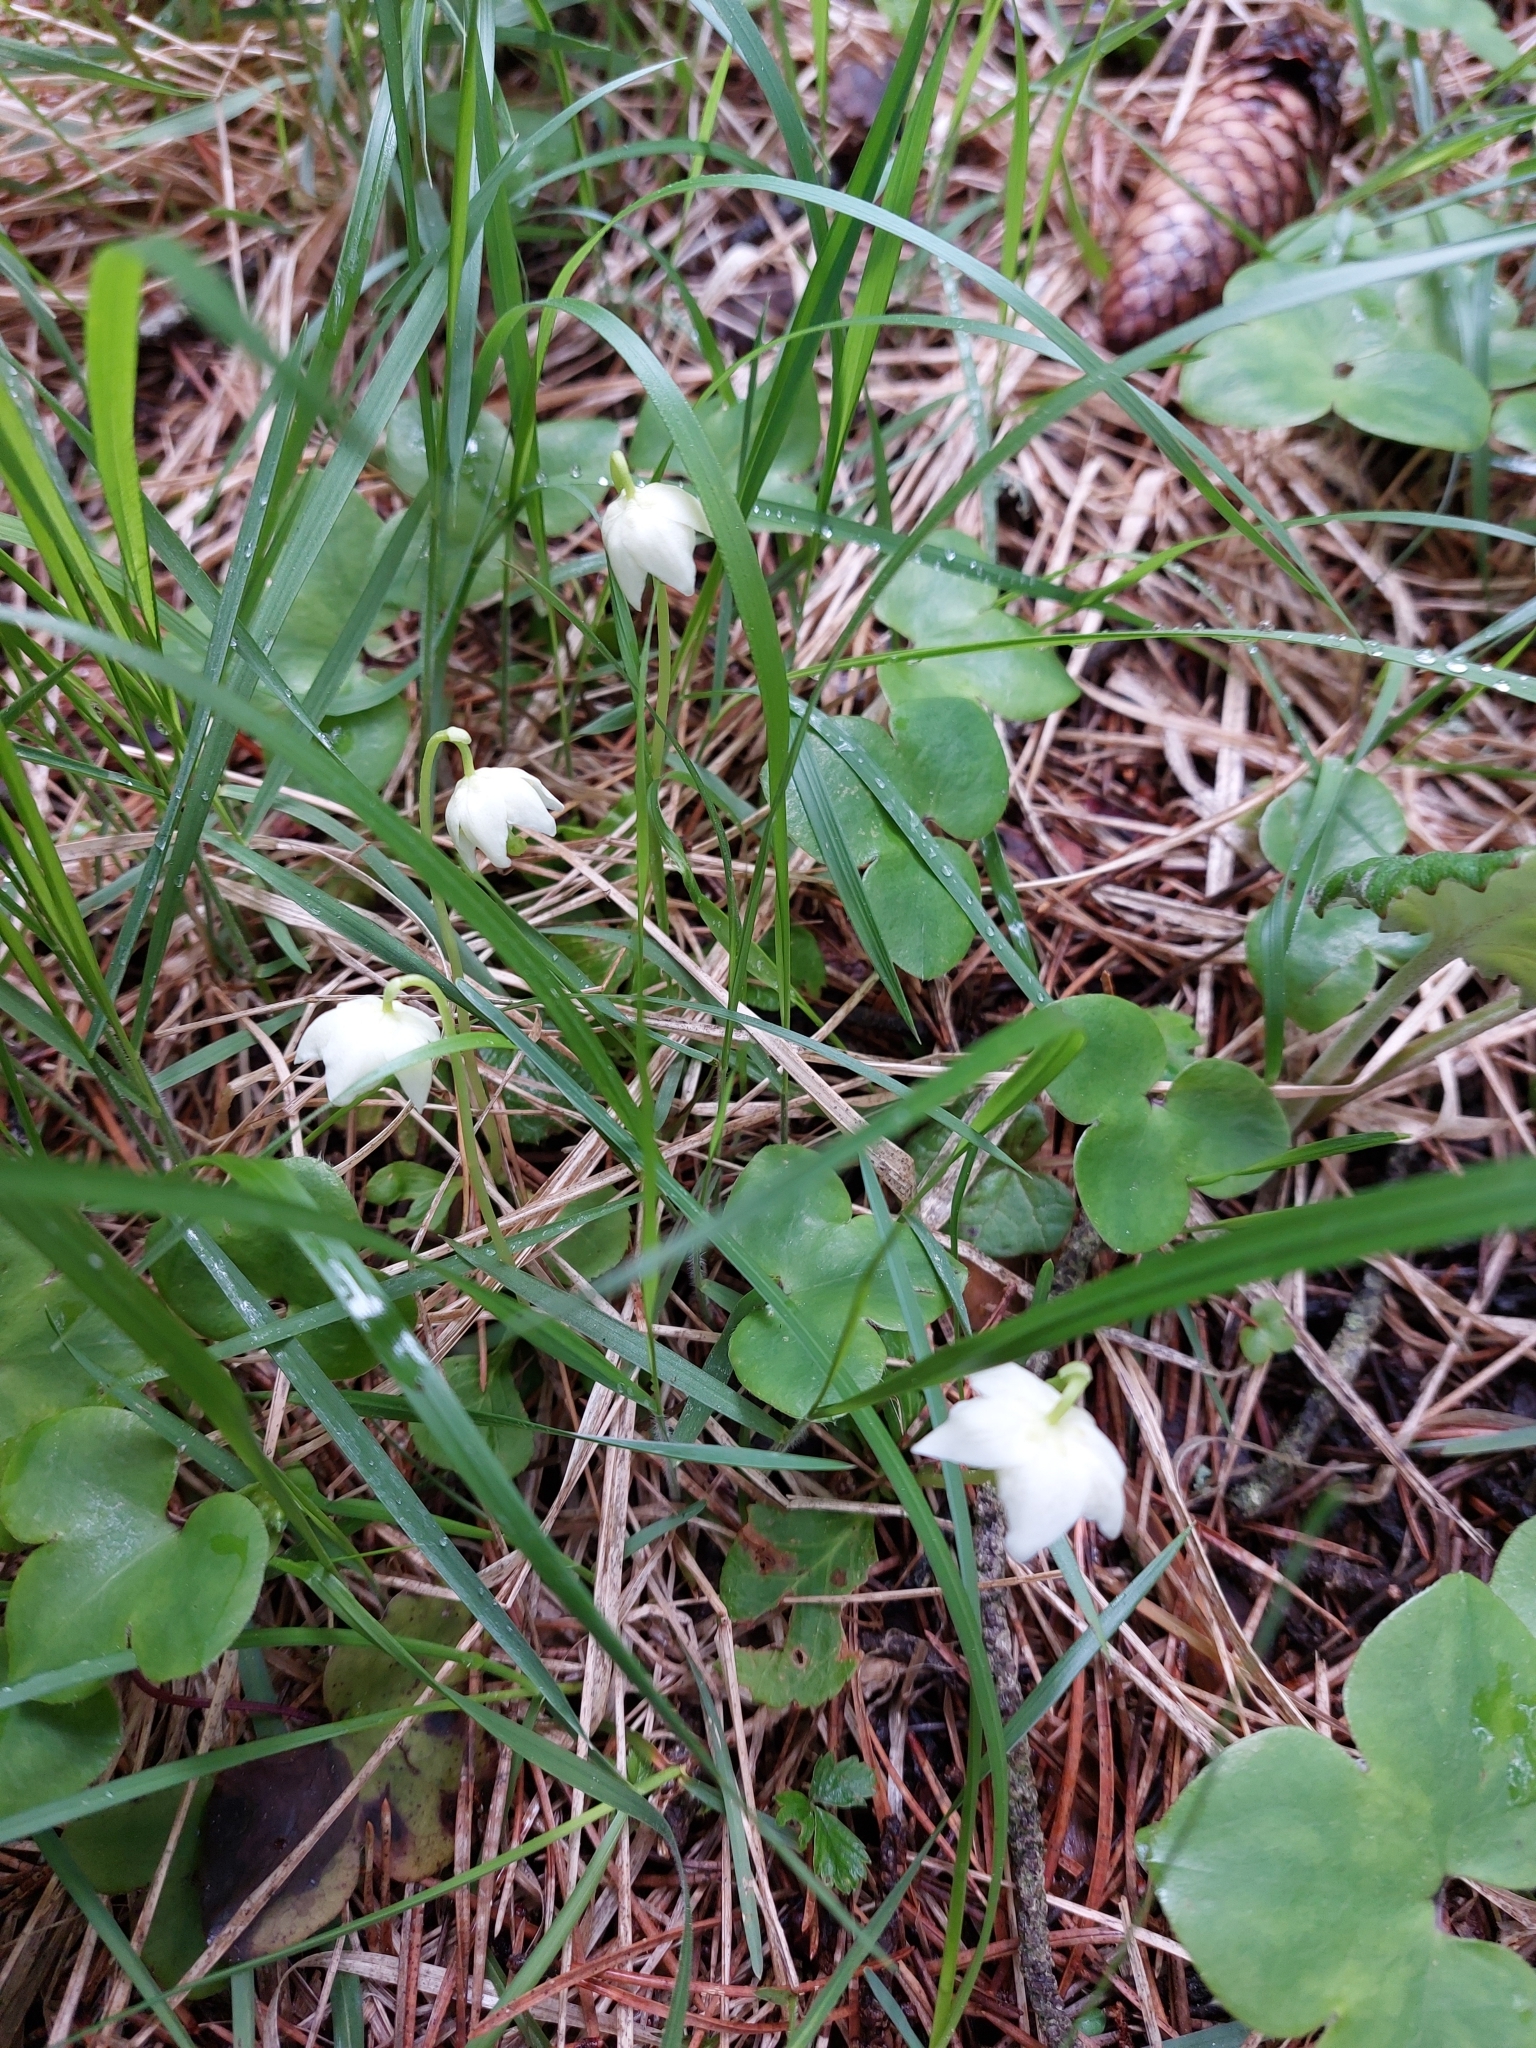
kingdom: Plantae
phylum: Tracheophyta
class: Magnoliopsida
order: Ericales
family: Ericaceae
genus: Moneses
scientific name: Moneses uniflora
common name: One-flowered wintergreen
